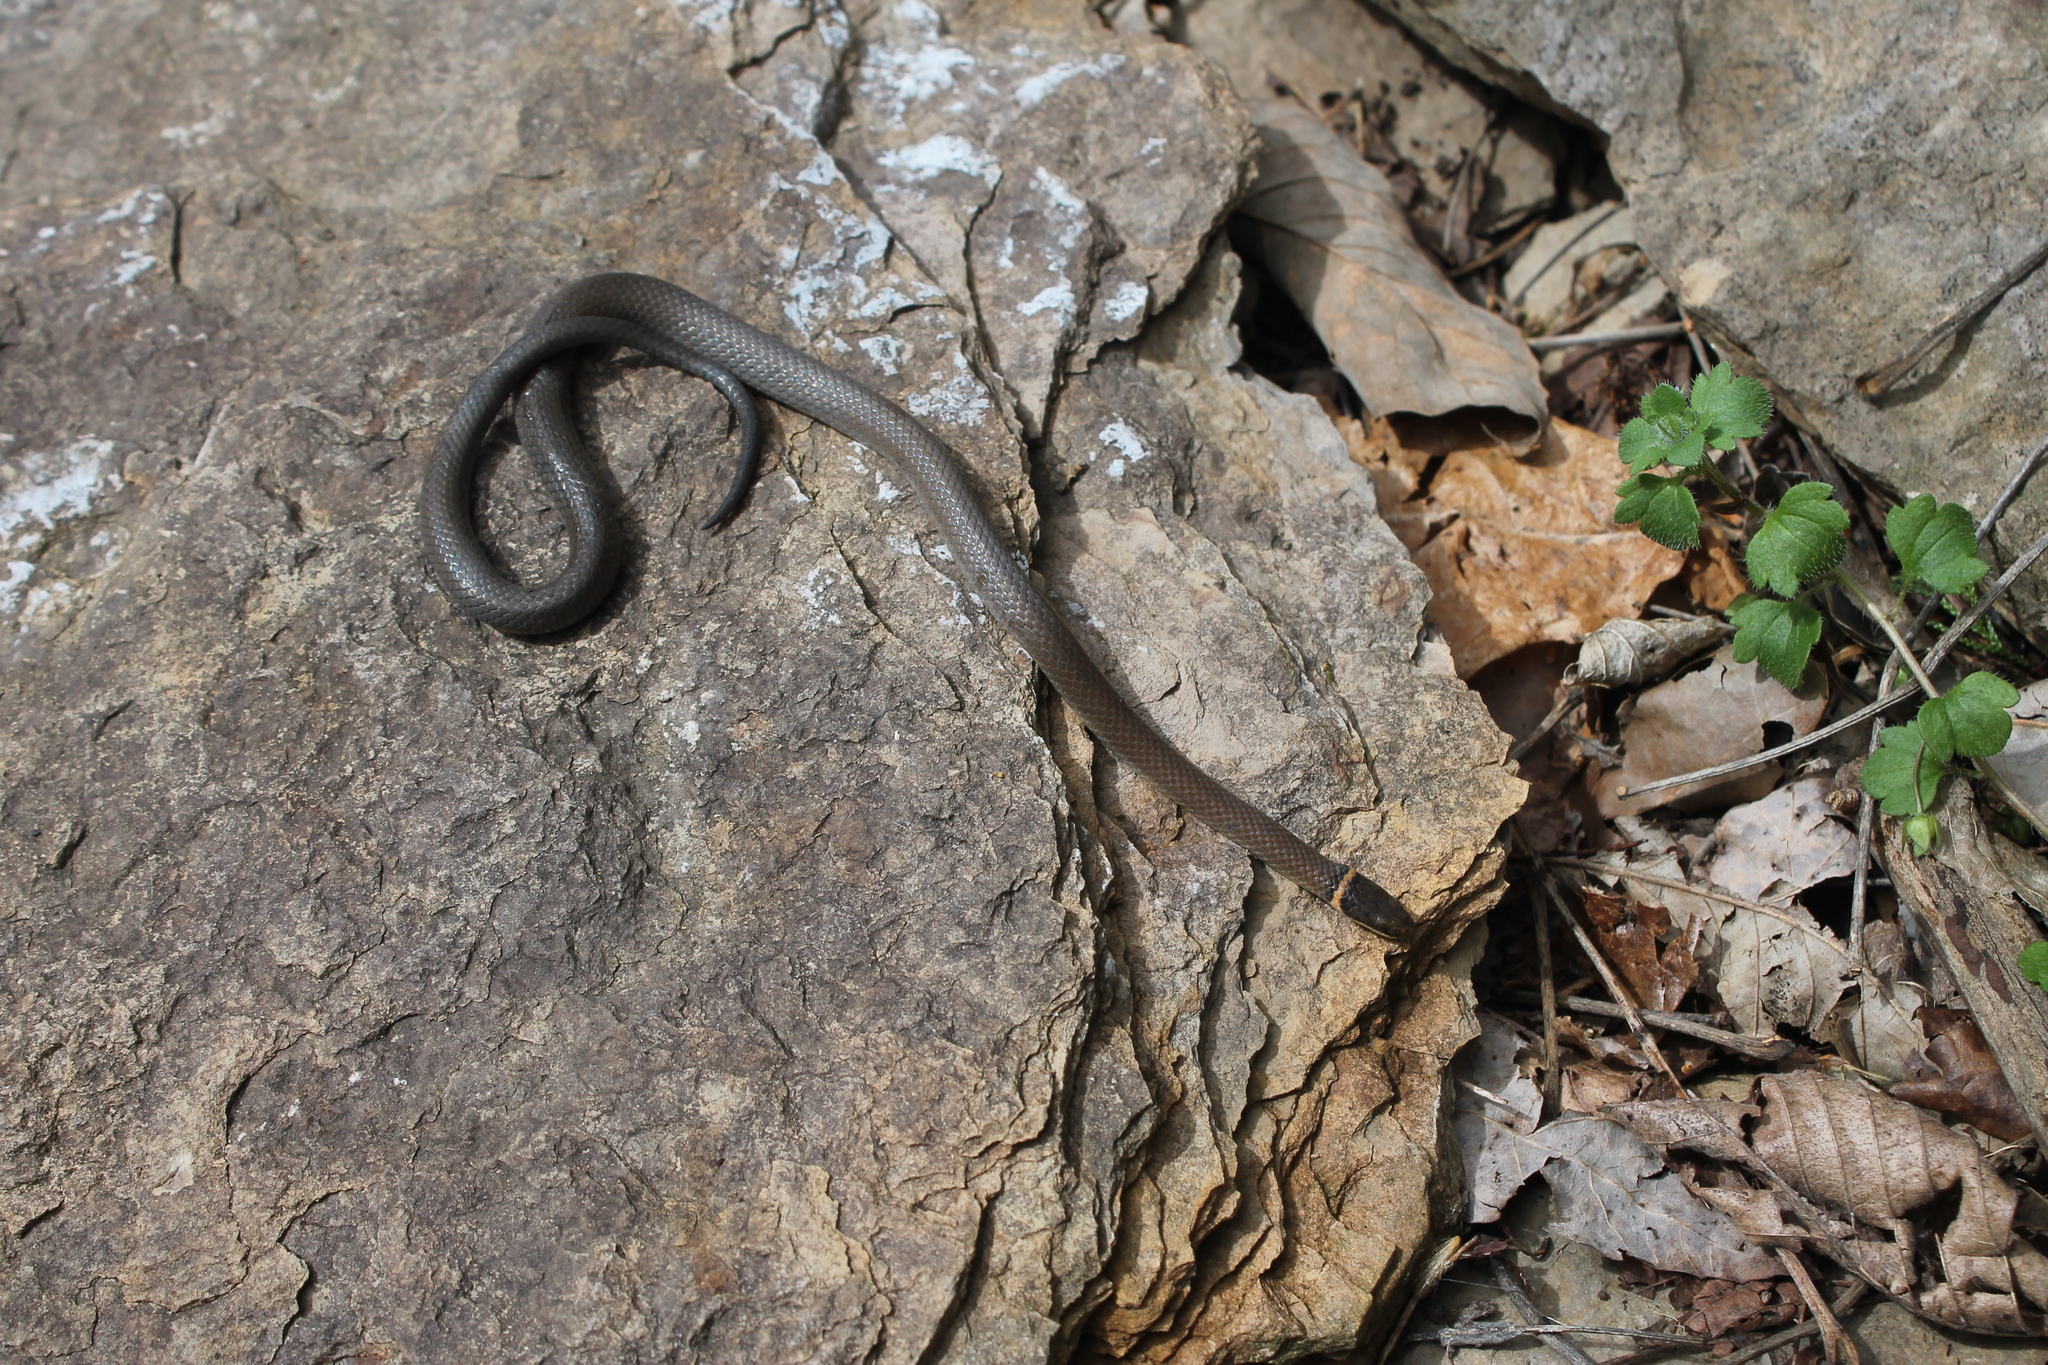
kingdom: Animalia
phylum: Chordata
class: Squamata
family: Colubridae
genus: Diadophis
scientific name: Diadophis punctatus
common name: Ringneck snake
